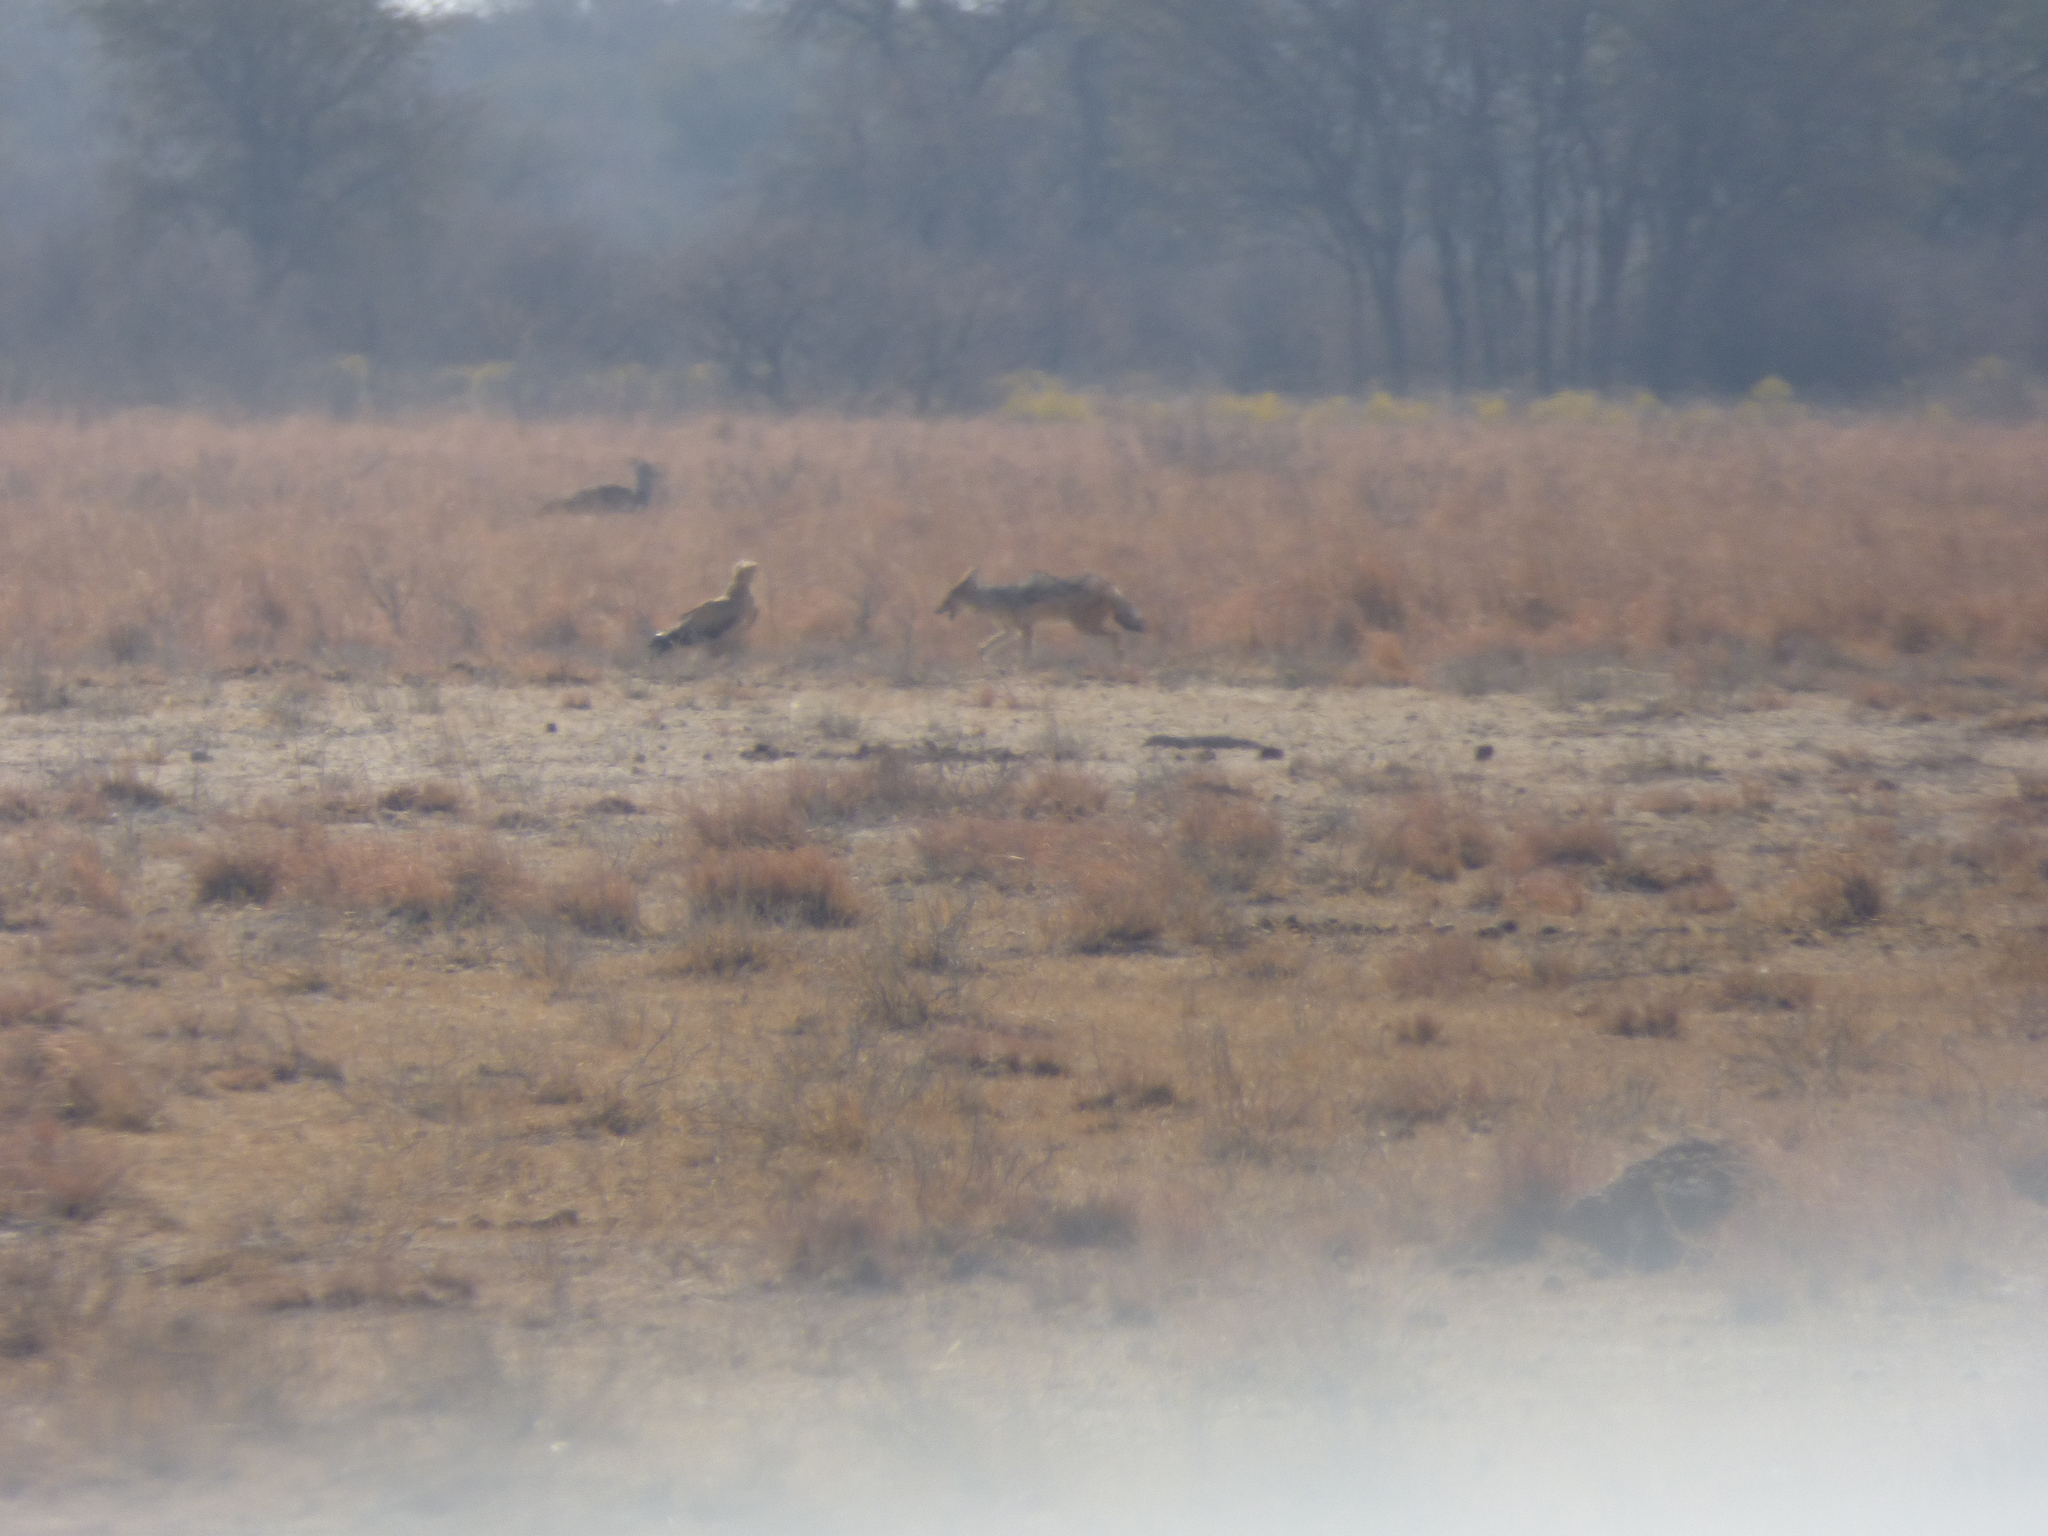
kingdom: Animalia
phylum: Chordata
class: Mammalia
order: Carnivora
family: Canidae
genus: Lupulella
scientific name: Lupulella
